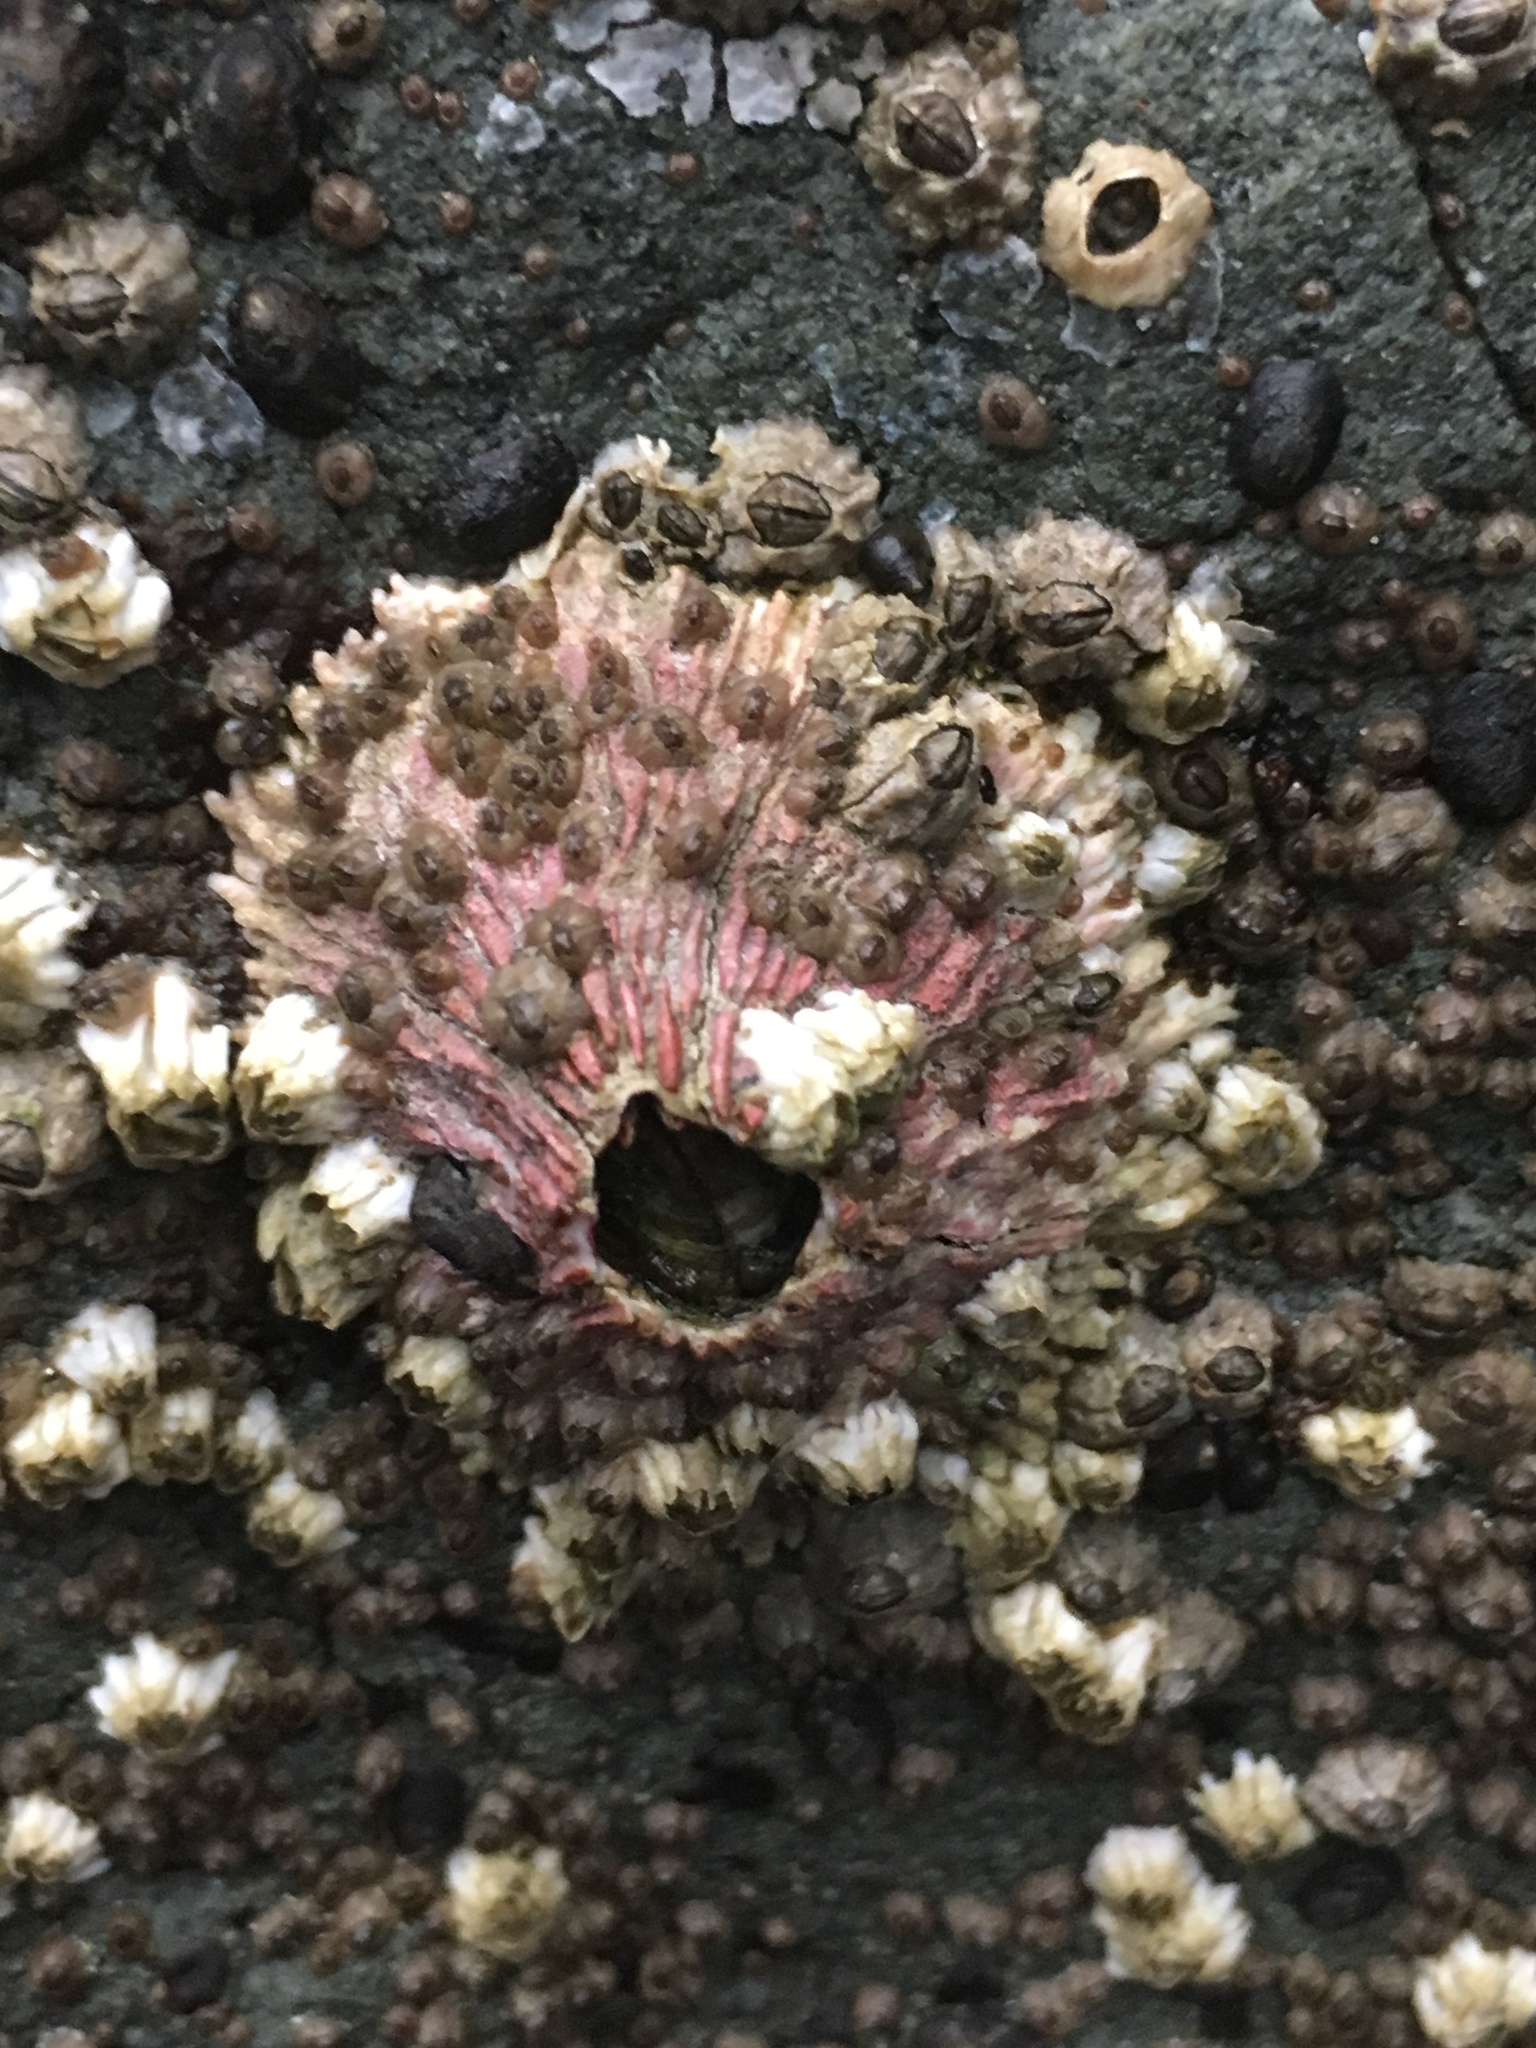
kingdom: Animalia
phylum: Arthropoda
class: Maxillopoda
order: Sessilia
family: Tetraclitidae
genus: Tetraclita
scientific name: Tetraclita rubescens
